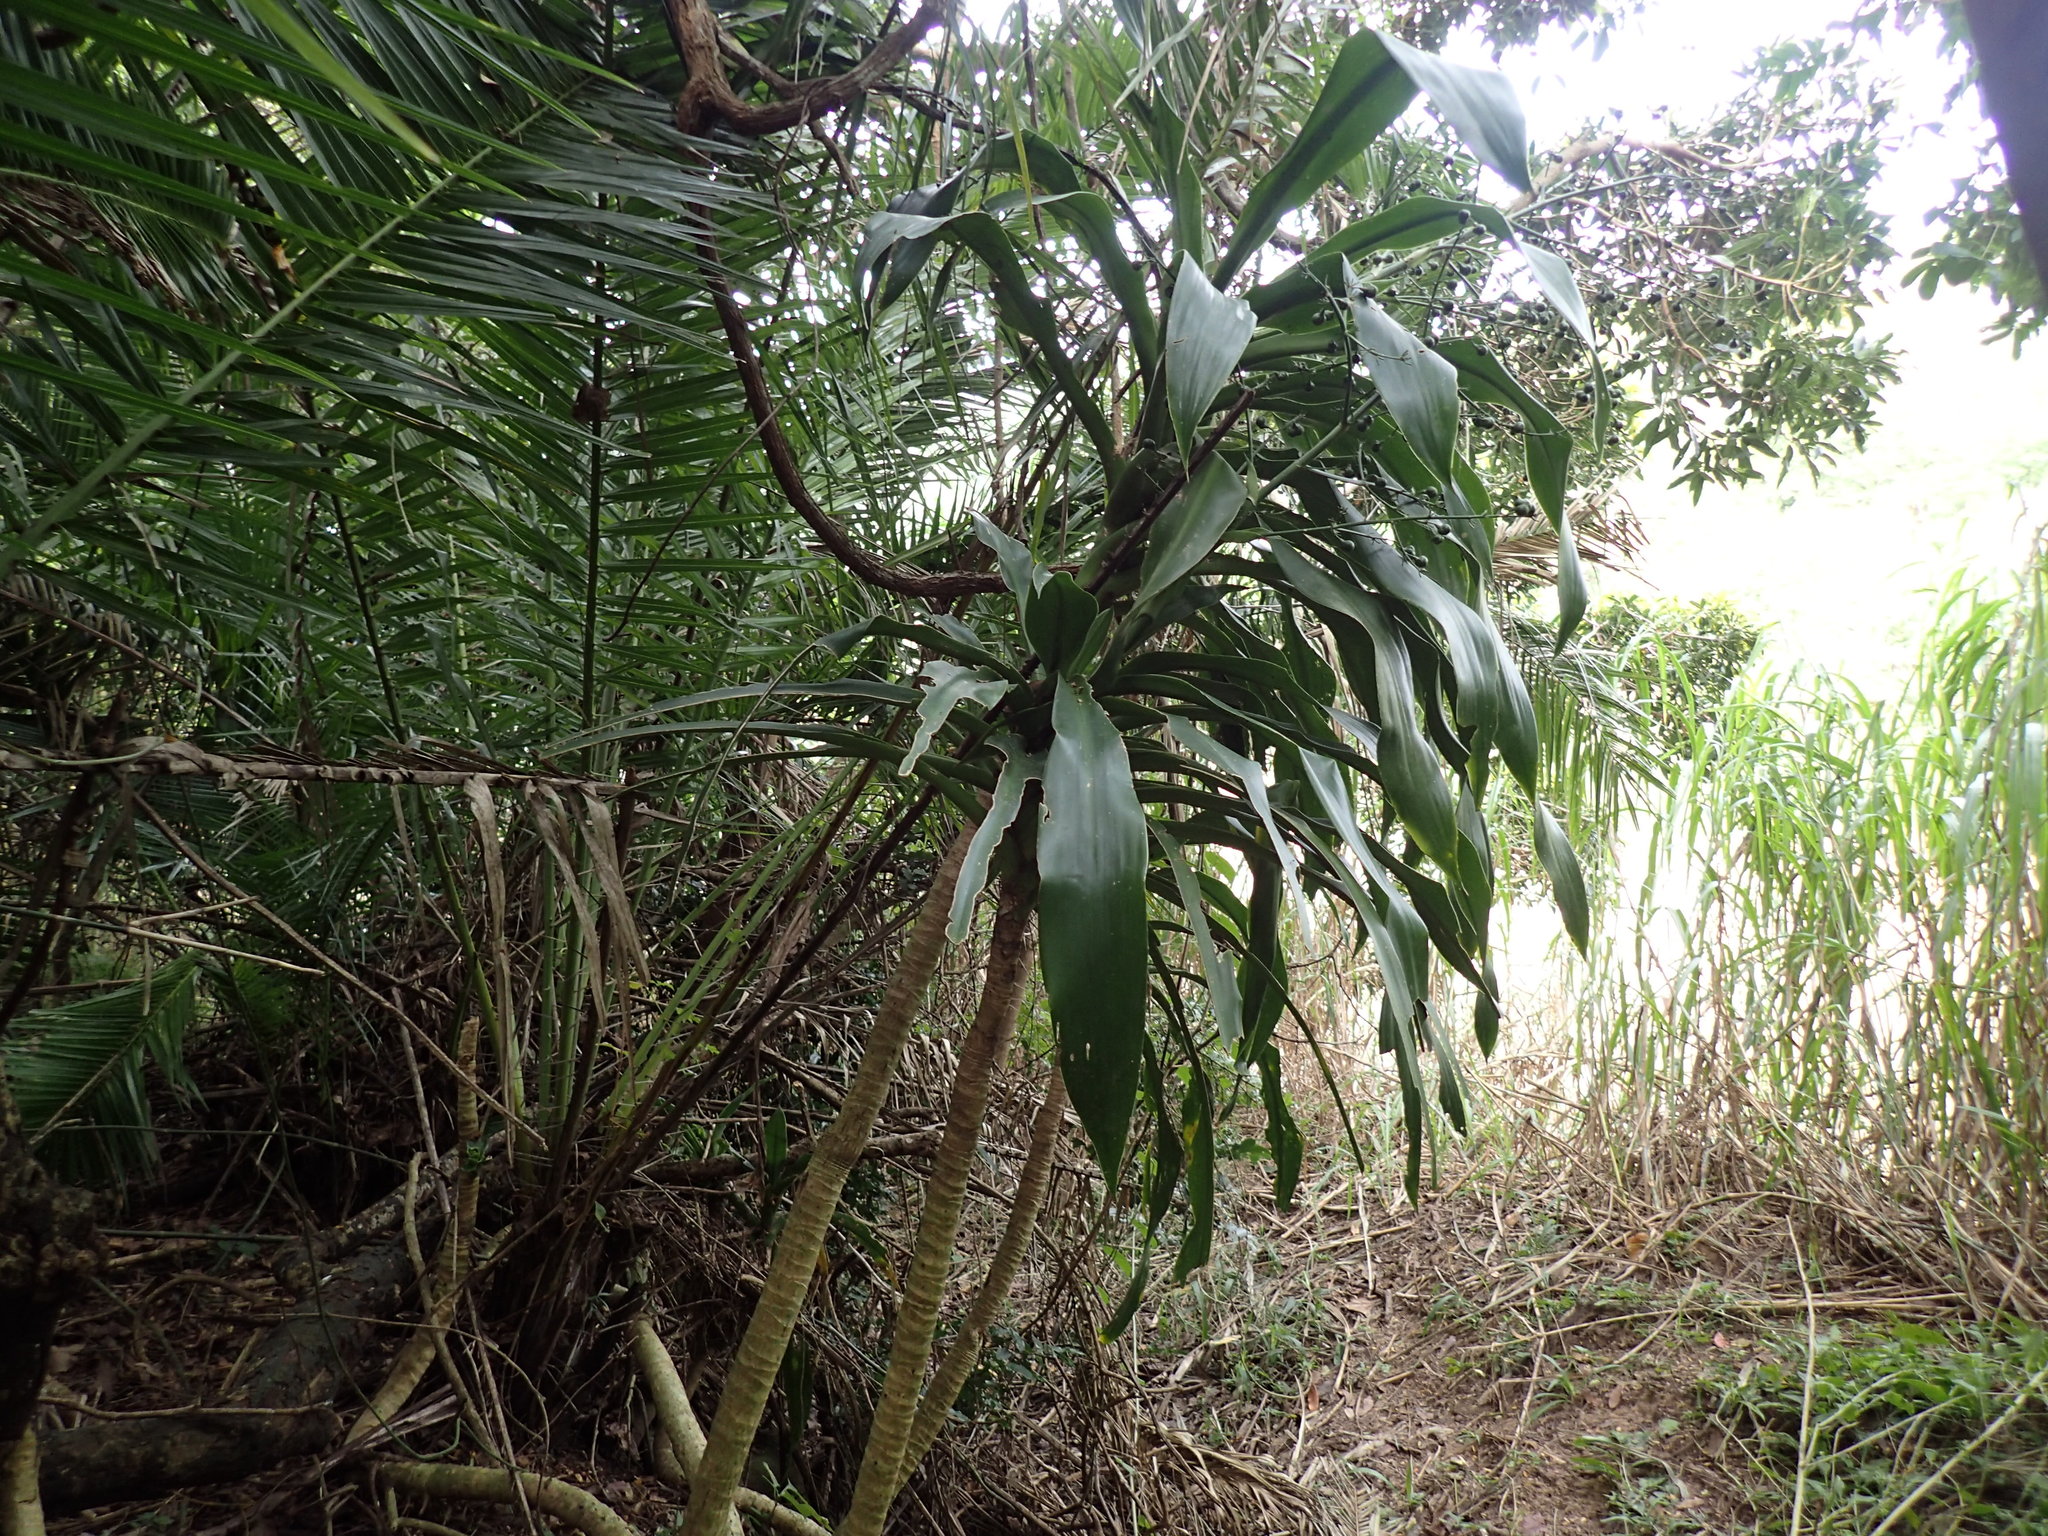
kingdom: Plantae
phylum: Tracheophyta
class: Liliopsida
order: Asparagales
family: Asparagaceae
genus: Dracaena
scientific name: Dracaena aletriformis
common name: Large-leaved dragon tree
